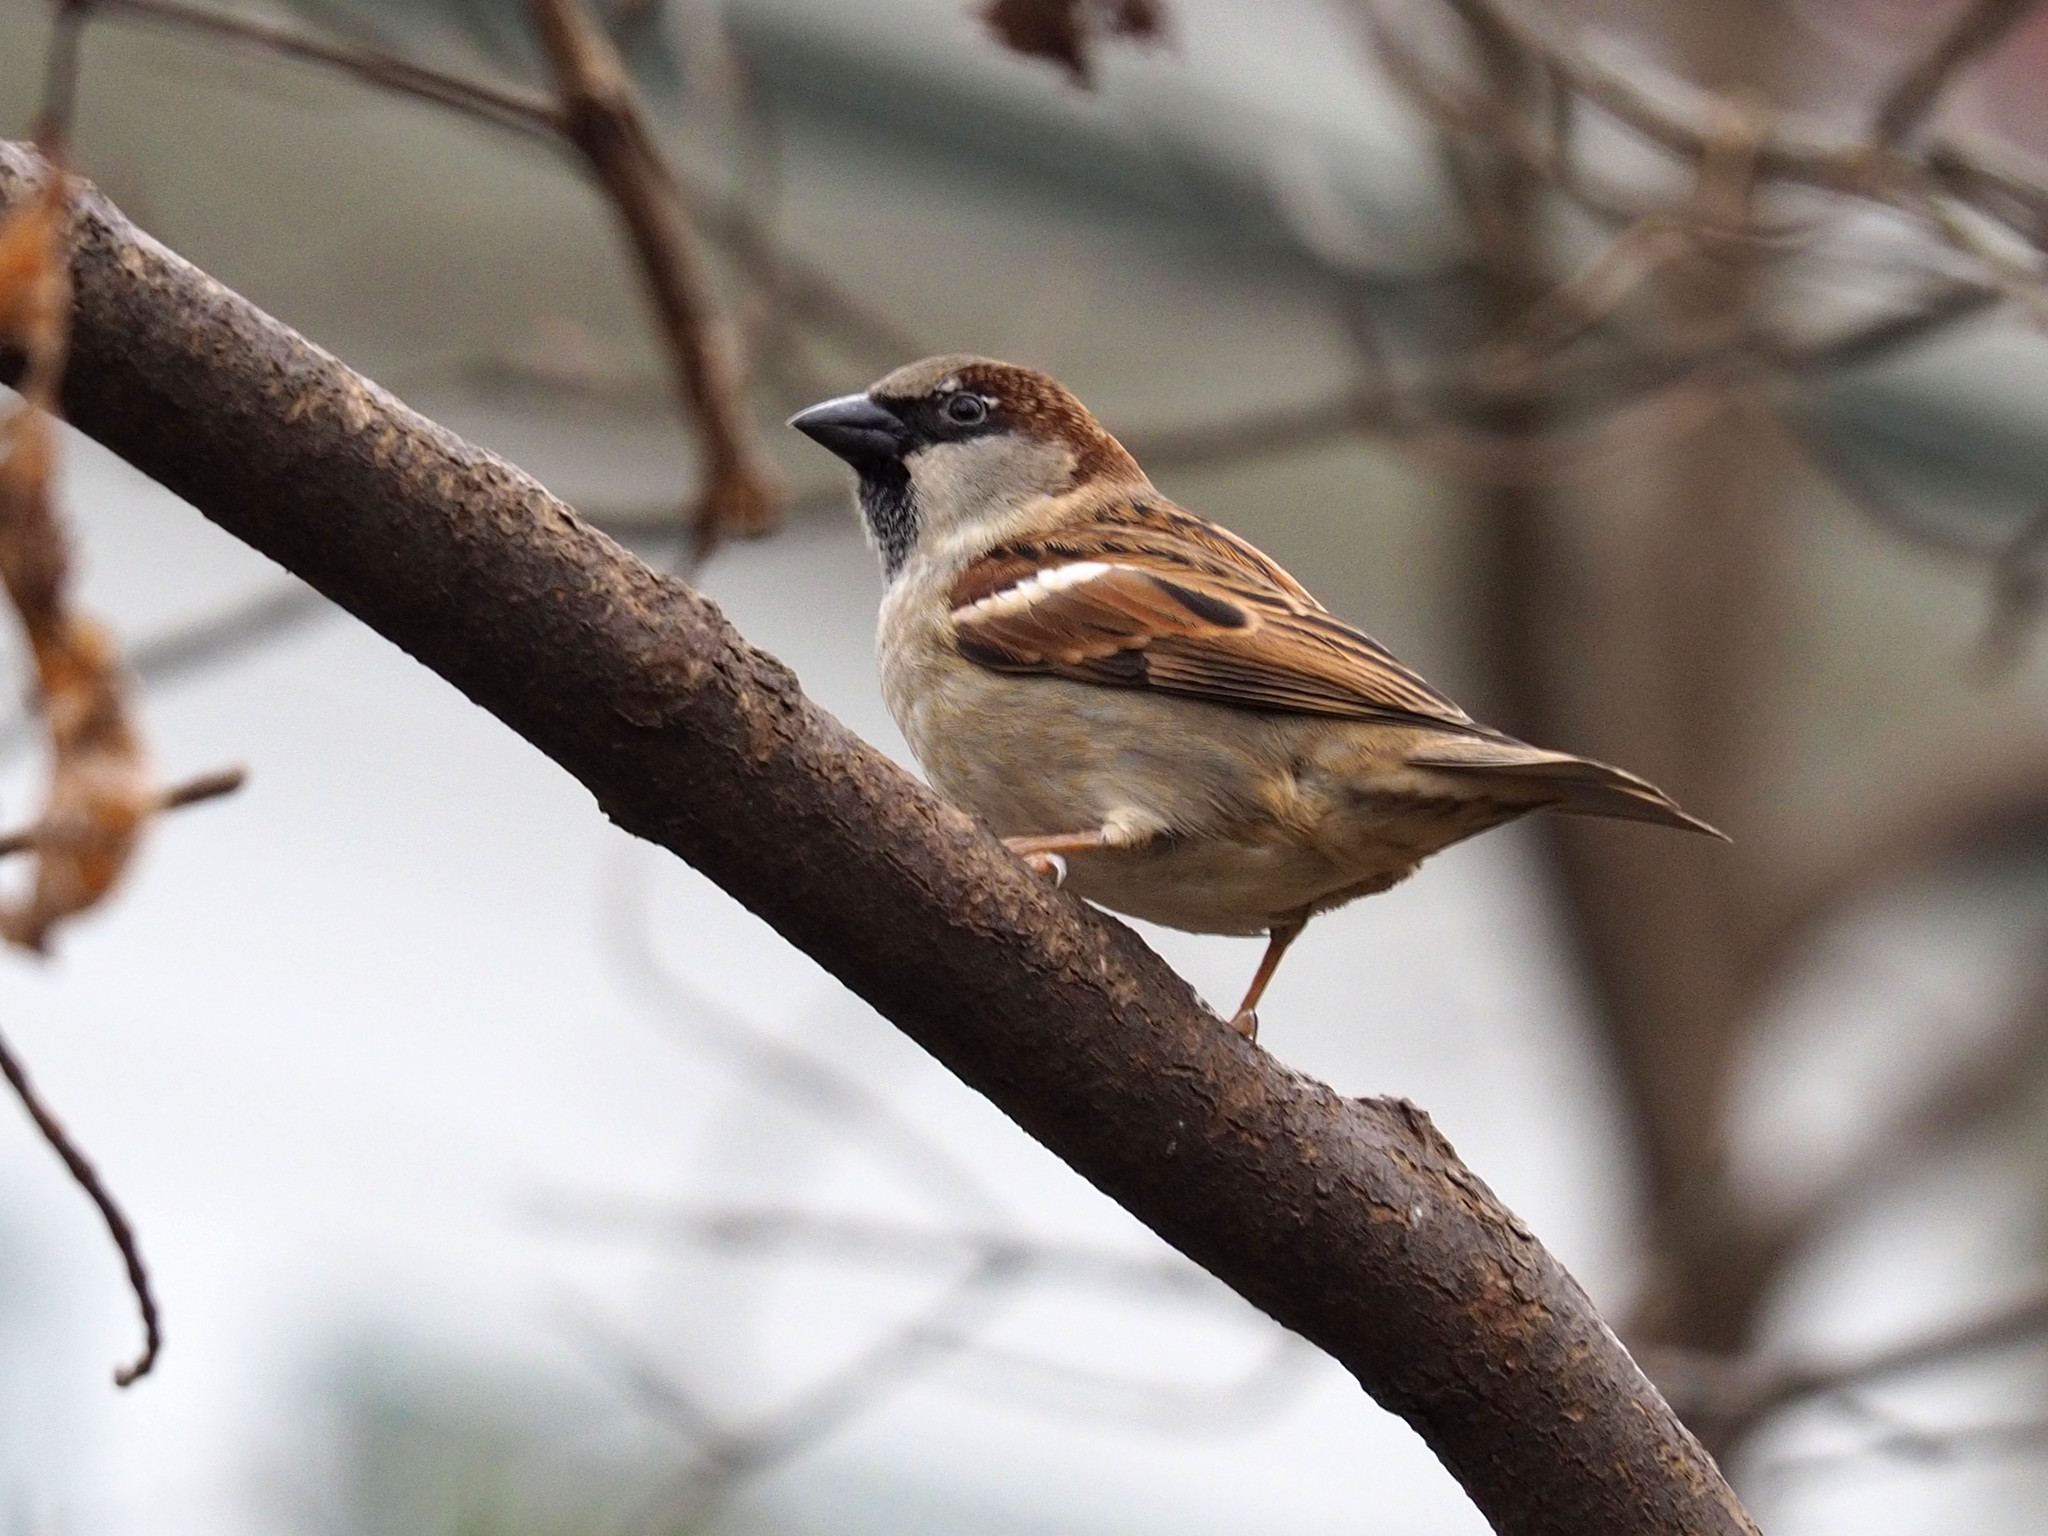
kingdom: Animalia
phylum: Chordata
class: Aves
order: Passeriformes
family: Passeridae
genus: Passer
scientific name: Passer domesticus
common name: House sparrow
